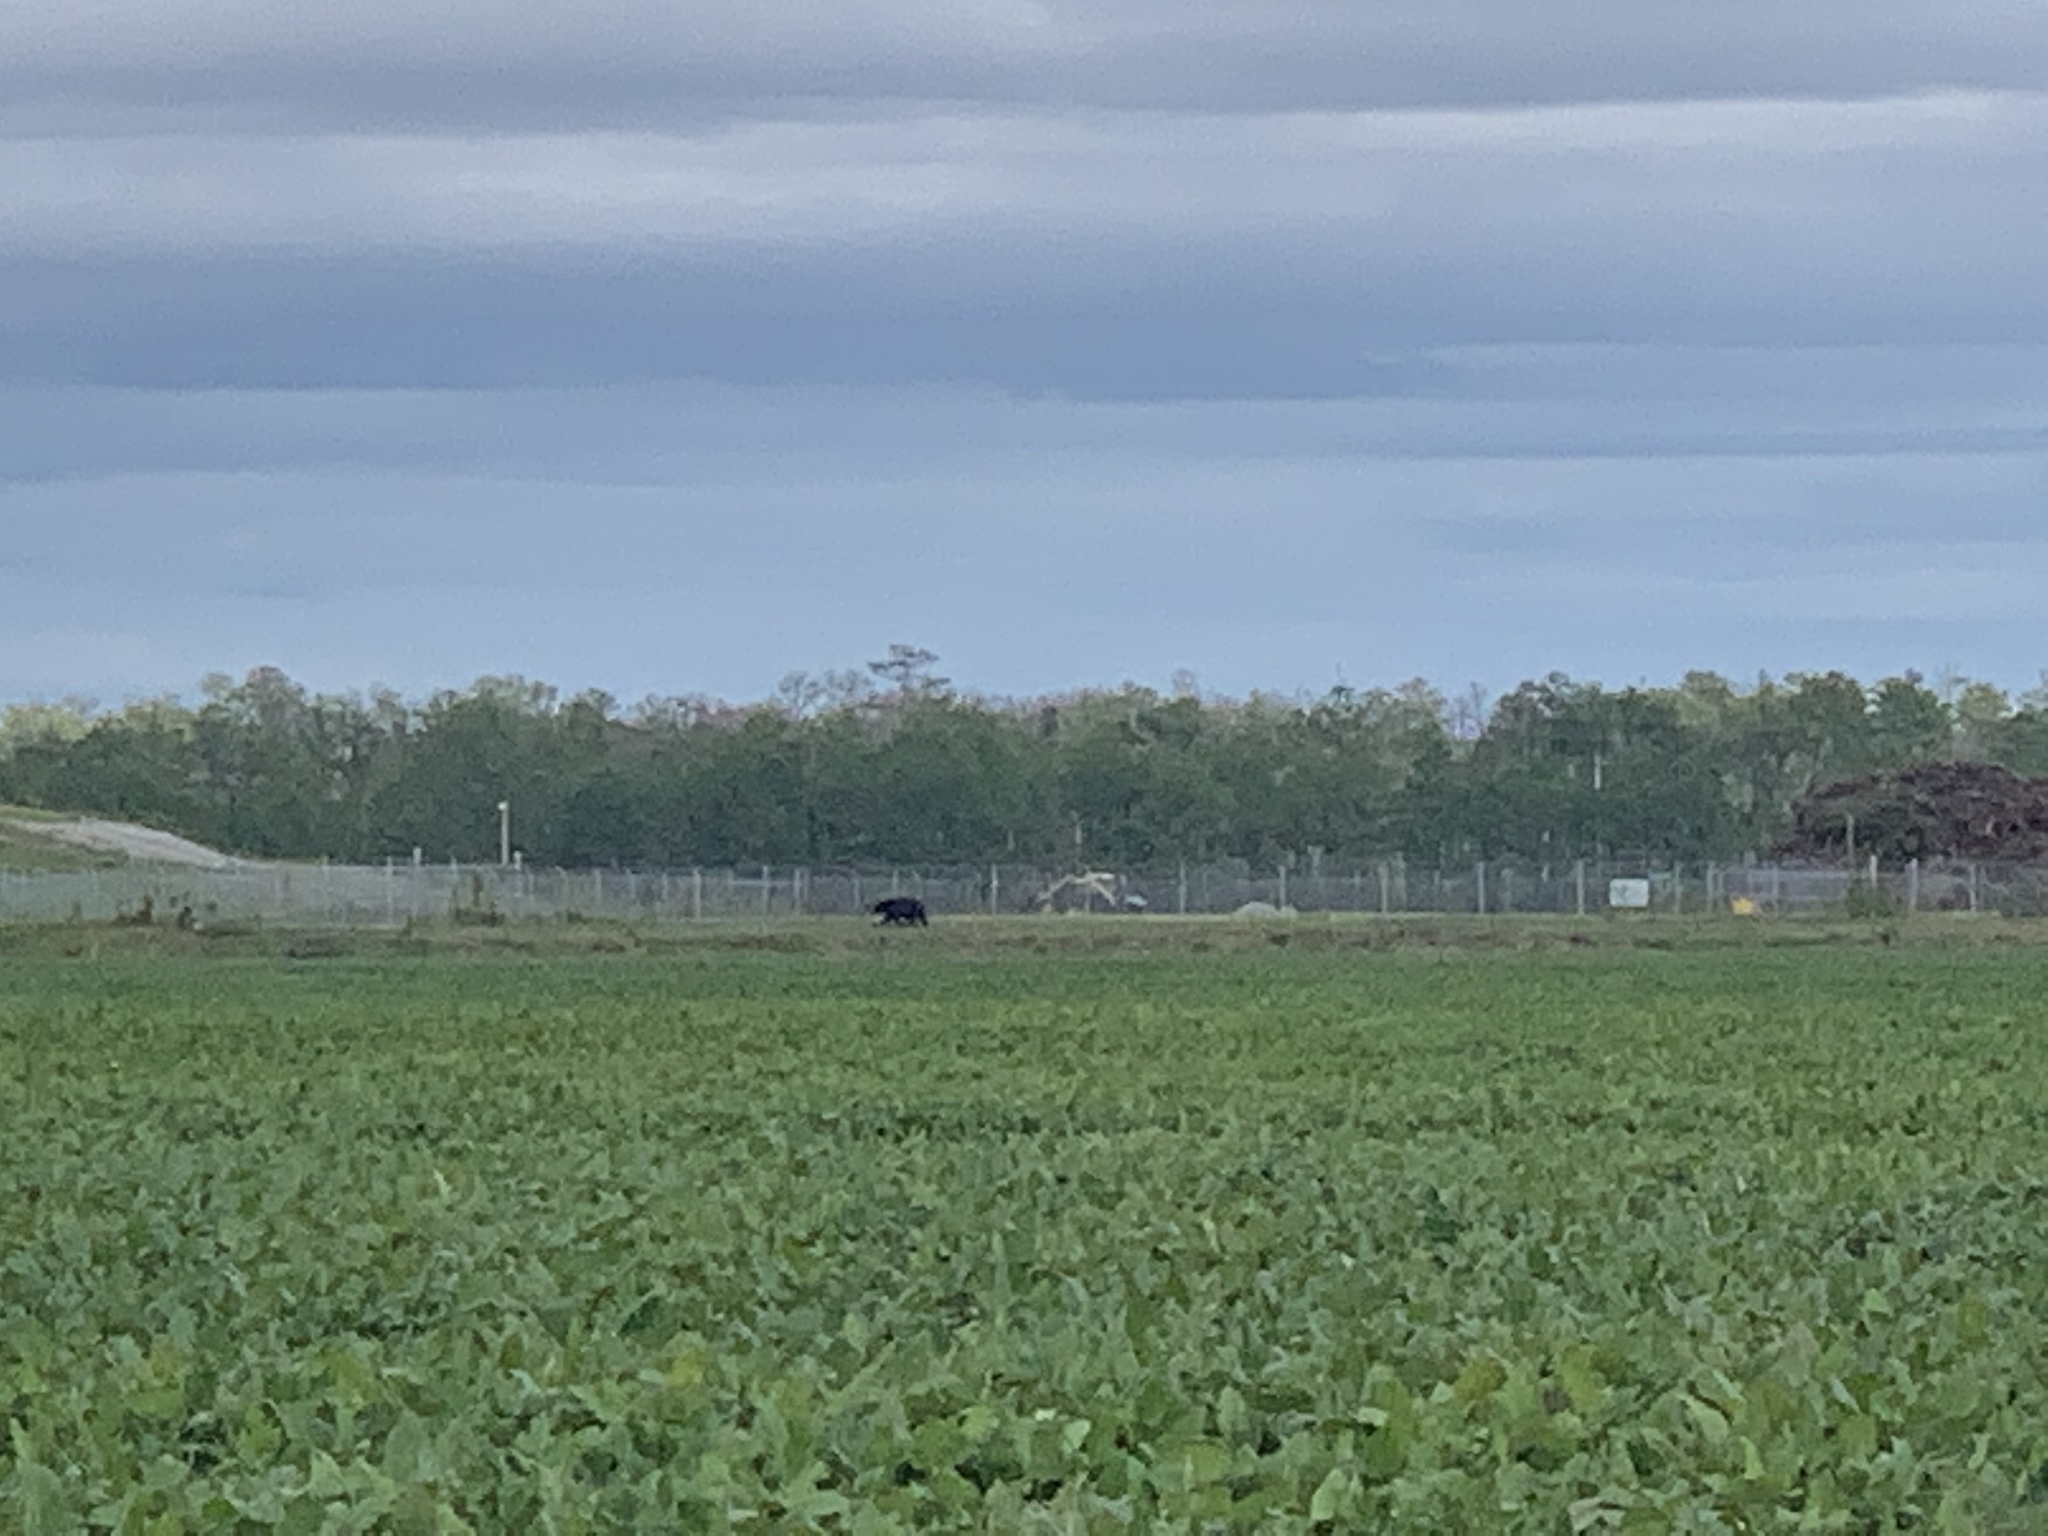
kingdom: Animalia
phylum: Chordata
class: Mammalia
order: Carnivora
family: Ursidae
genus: Ursus
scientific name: Ursus americanus
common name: American black bear
